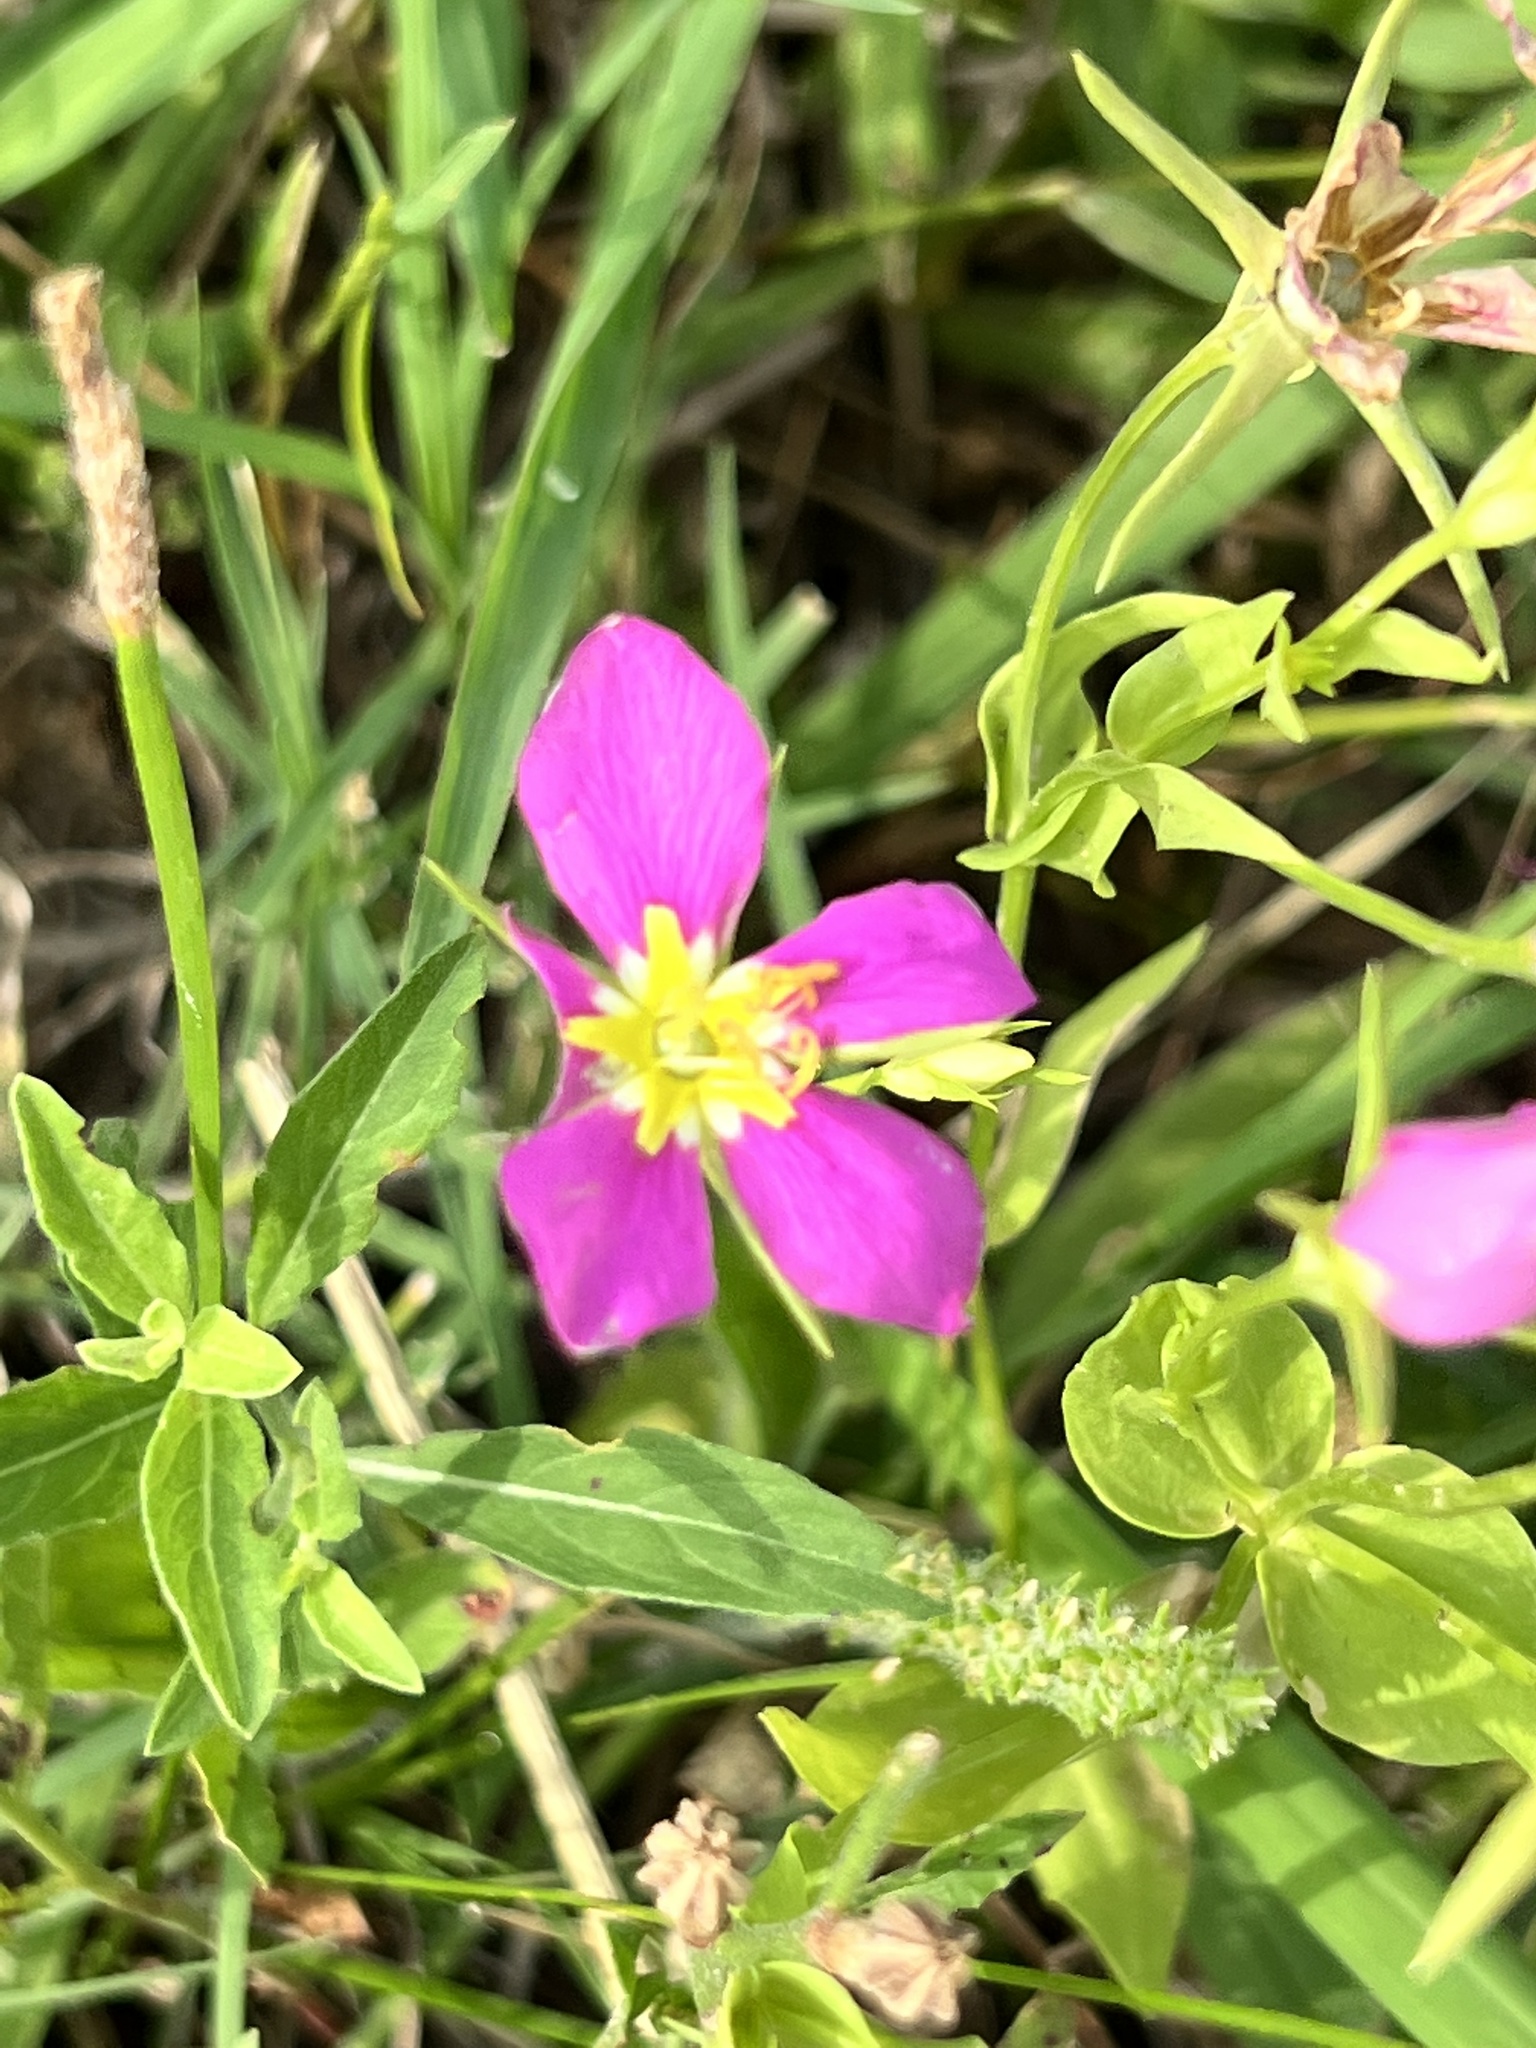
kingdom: Plantae
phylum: Tracheophyta
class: Magnoliopsida
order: Gentianales
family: Gentianaceae
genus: Sabatia
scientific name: Sabatia campestris
